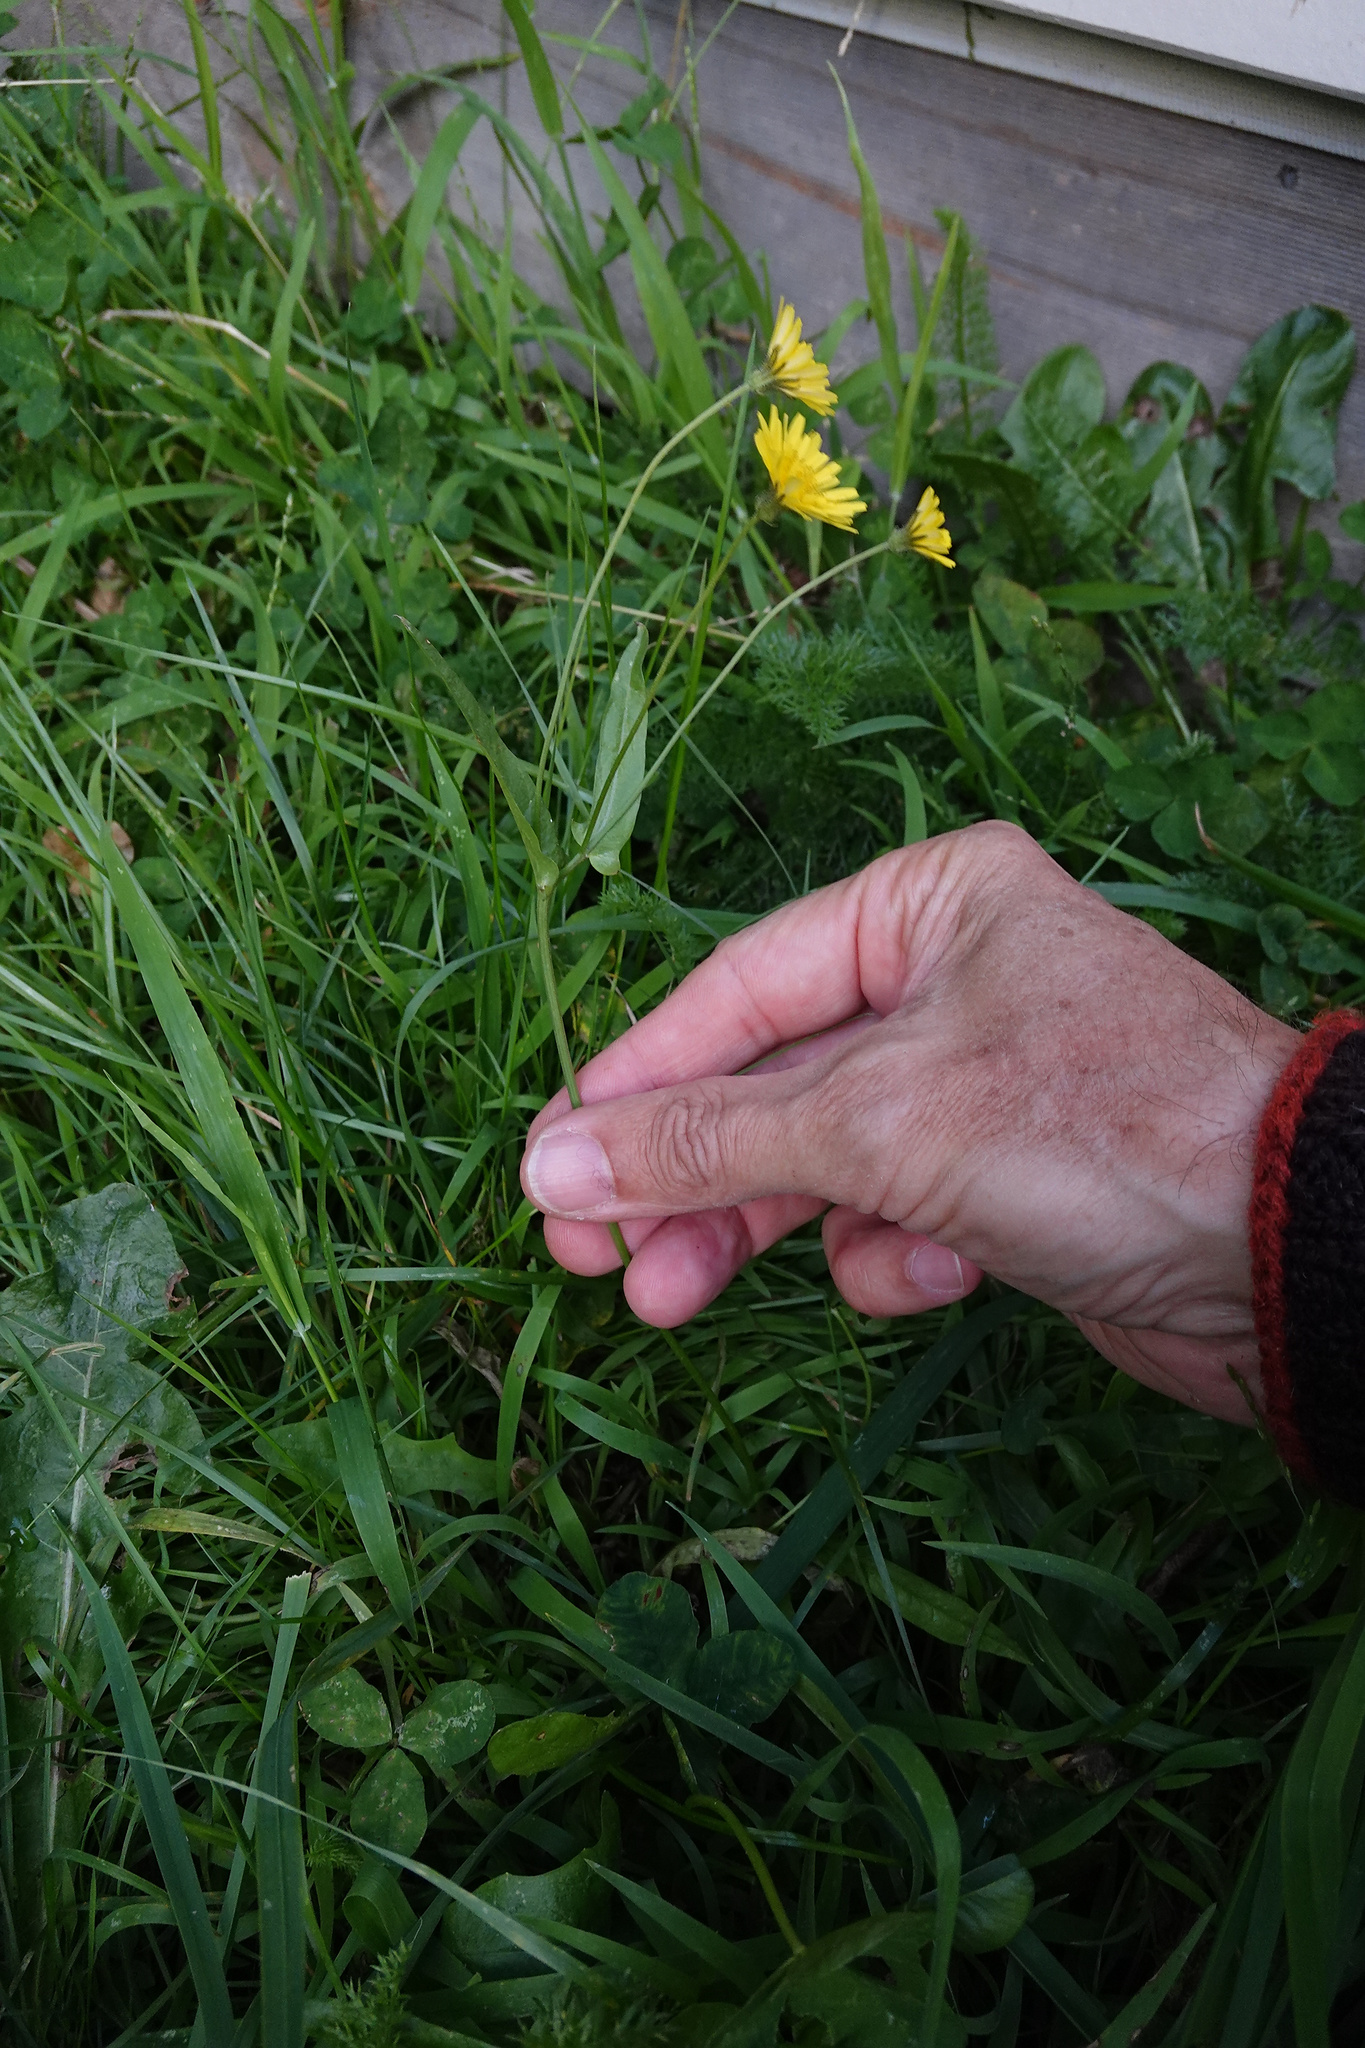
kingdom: Plantae
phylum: Tracheophyta
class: Magnoliopsida
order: Asterales
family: Asteraceae
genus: Crepis
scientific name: Crepis capillaris
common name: Smooth hawksbeard
